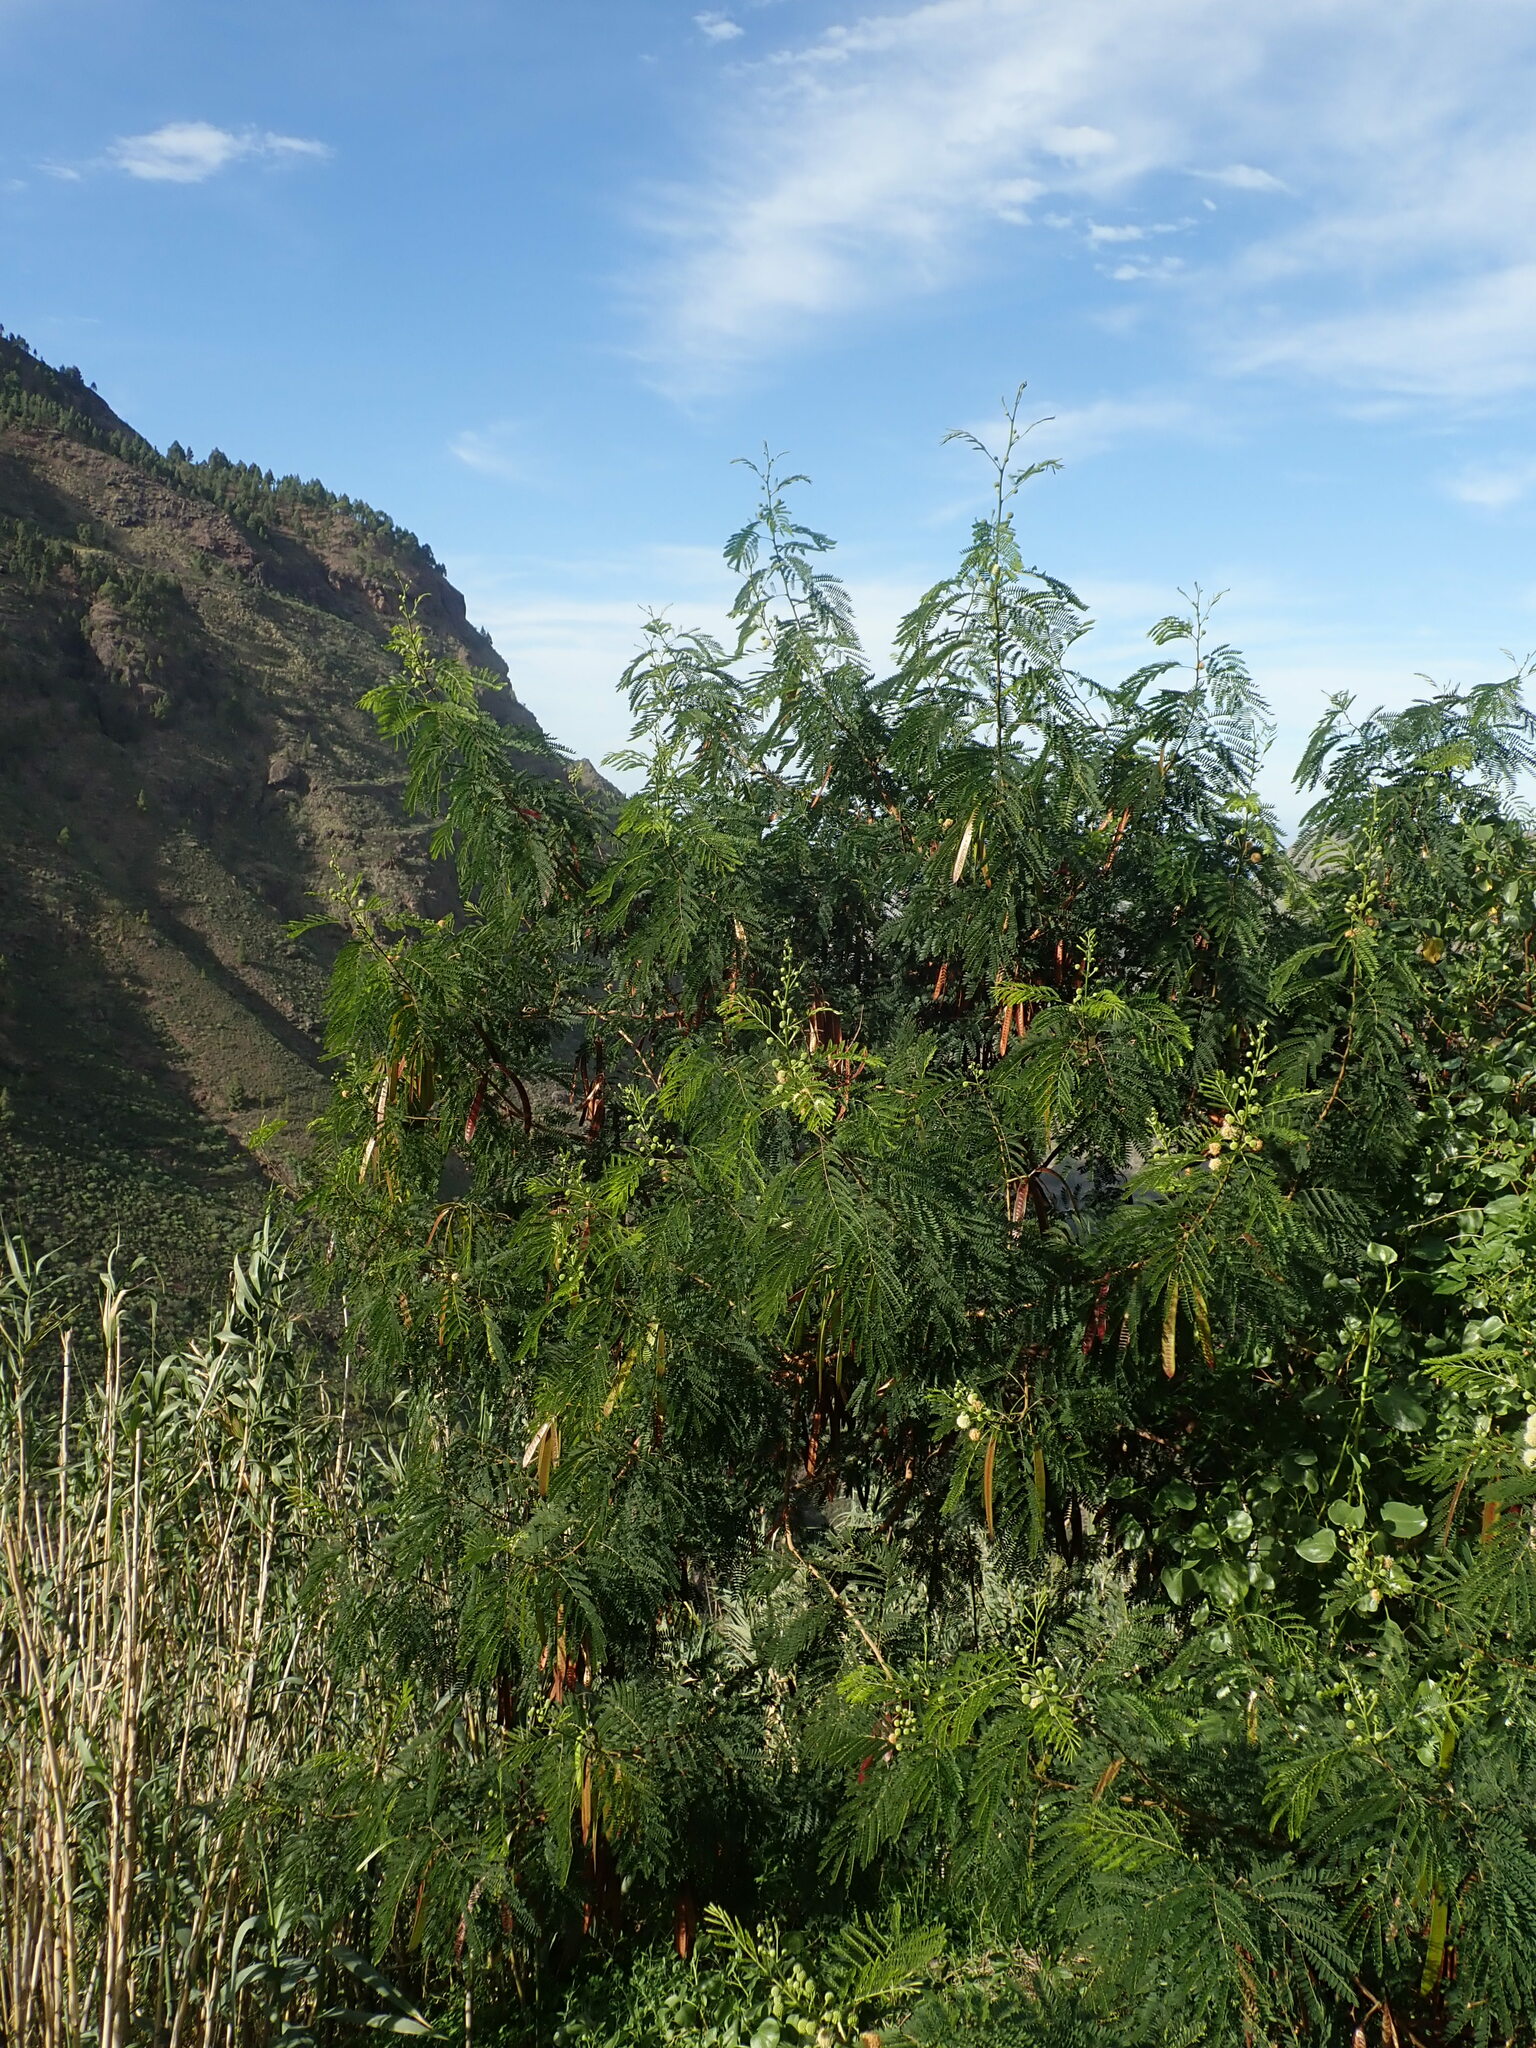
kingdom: Plantae
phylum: Tracheophyta
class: Magnoliopsida
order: Fabales
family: Fabaceae
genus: Leucaena
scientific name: Leucaena leucocephala
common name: White leadtree
